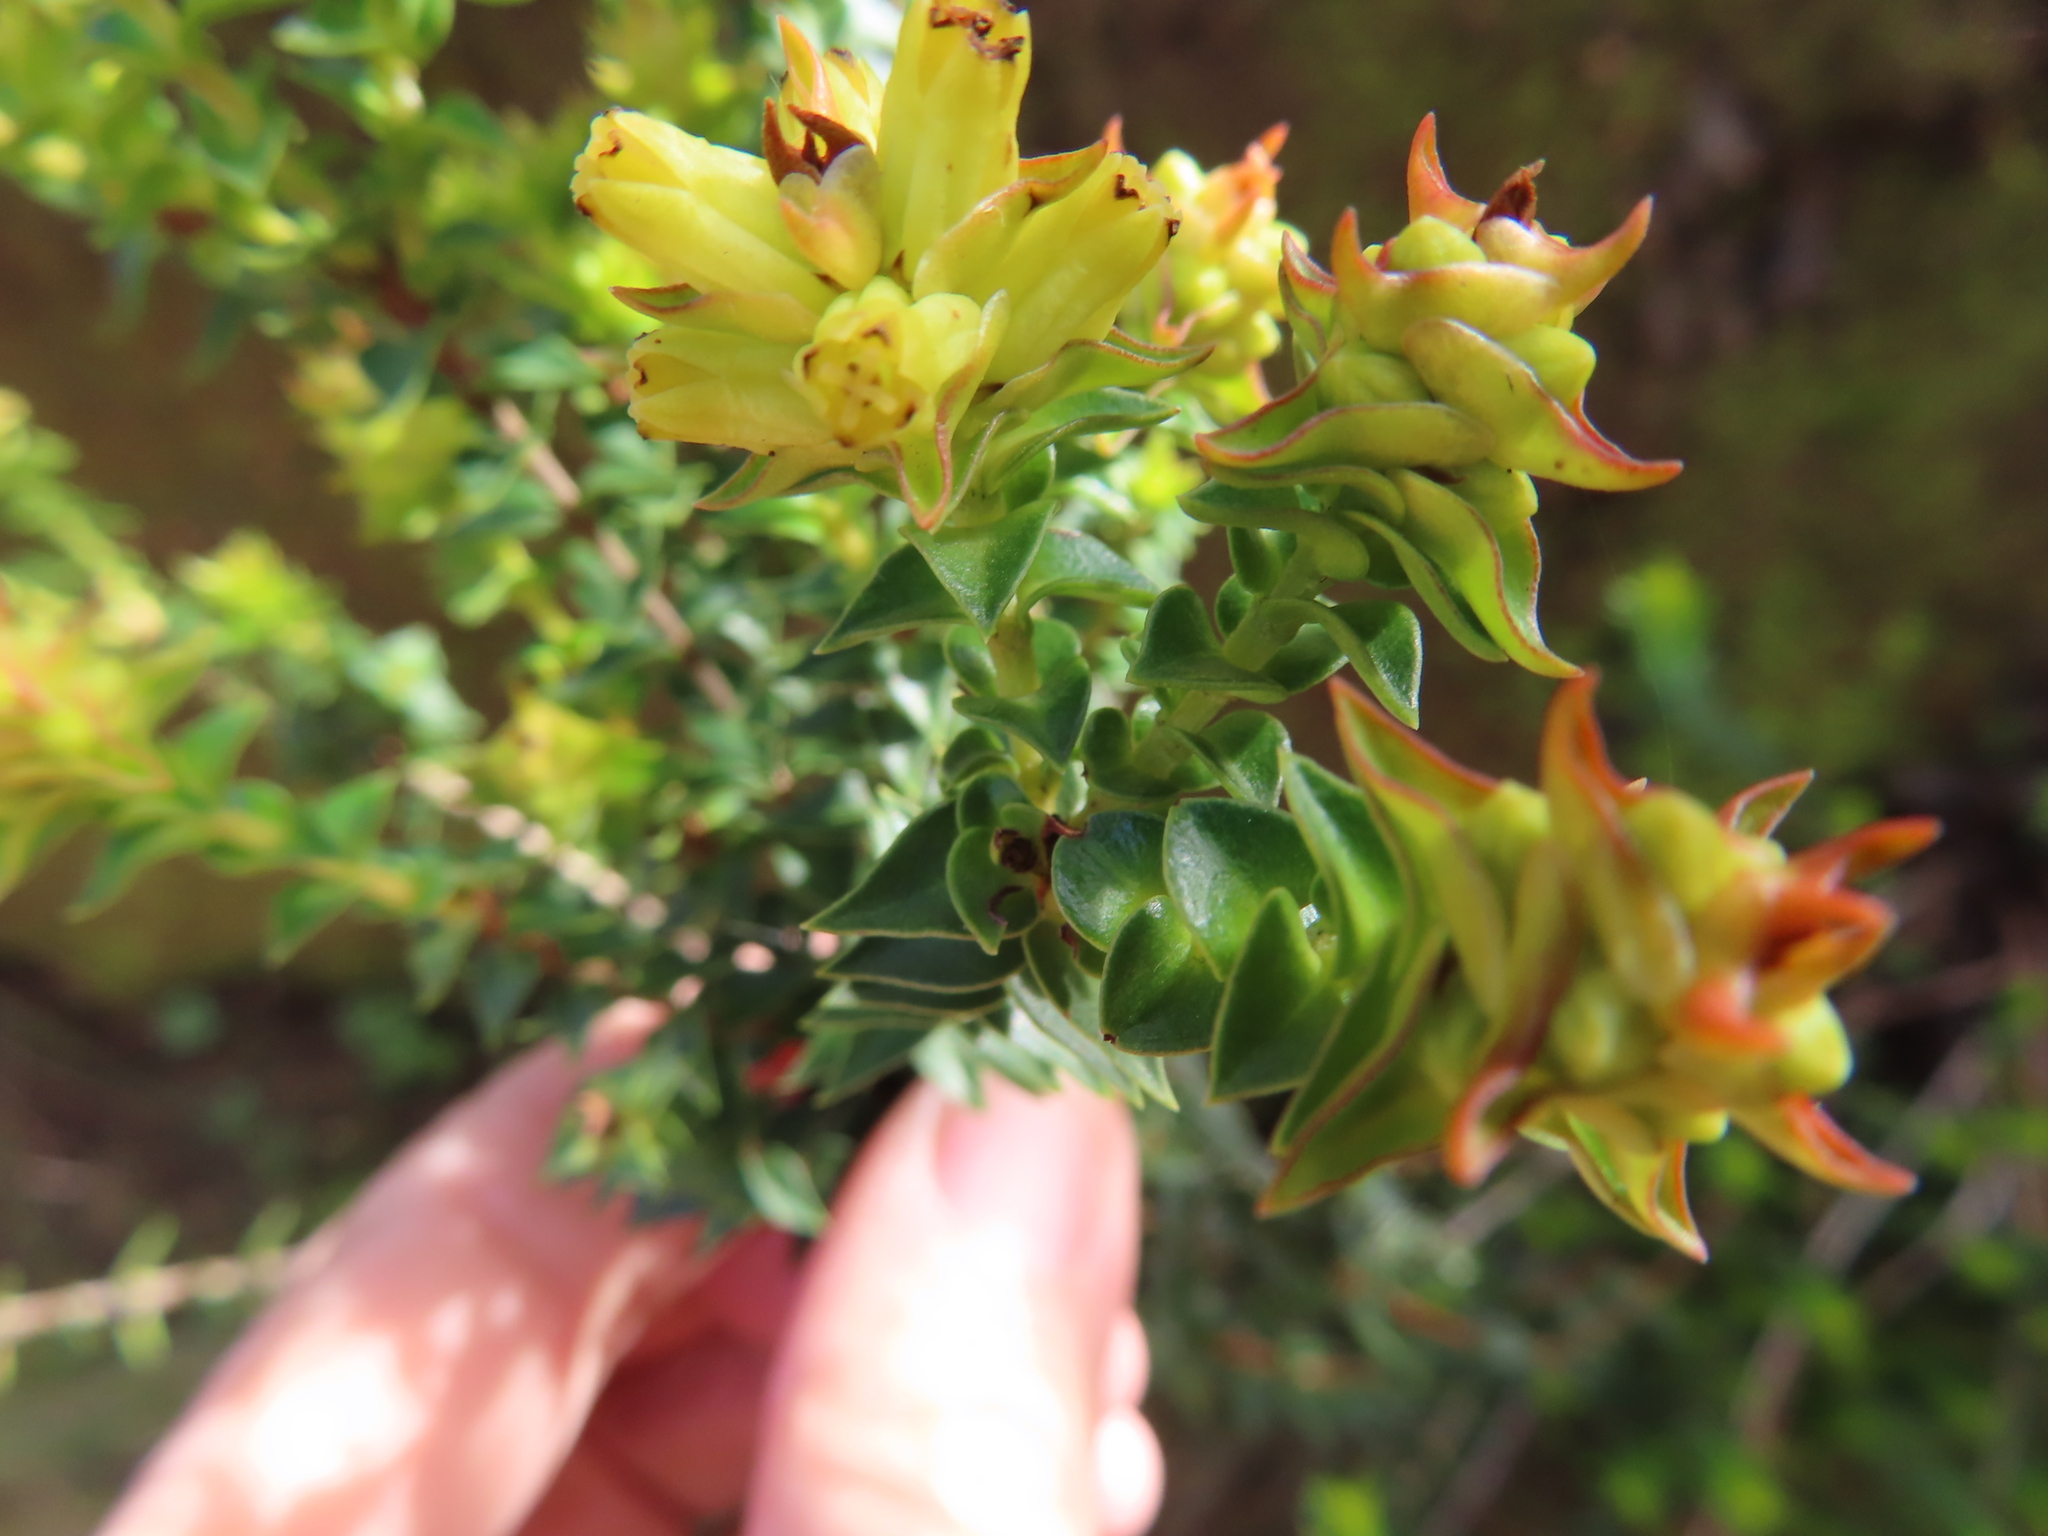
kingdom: Plantae
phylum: Tracheophyta
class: Magnoliopsida
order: Myrtales
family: Penaeaceae
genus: Penaea
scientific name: Penaea mucronata
